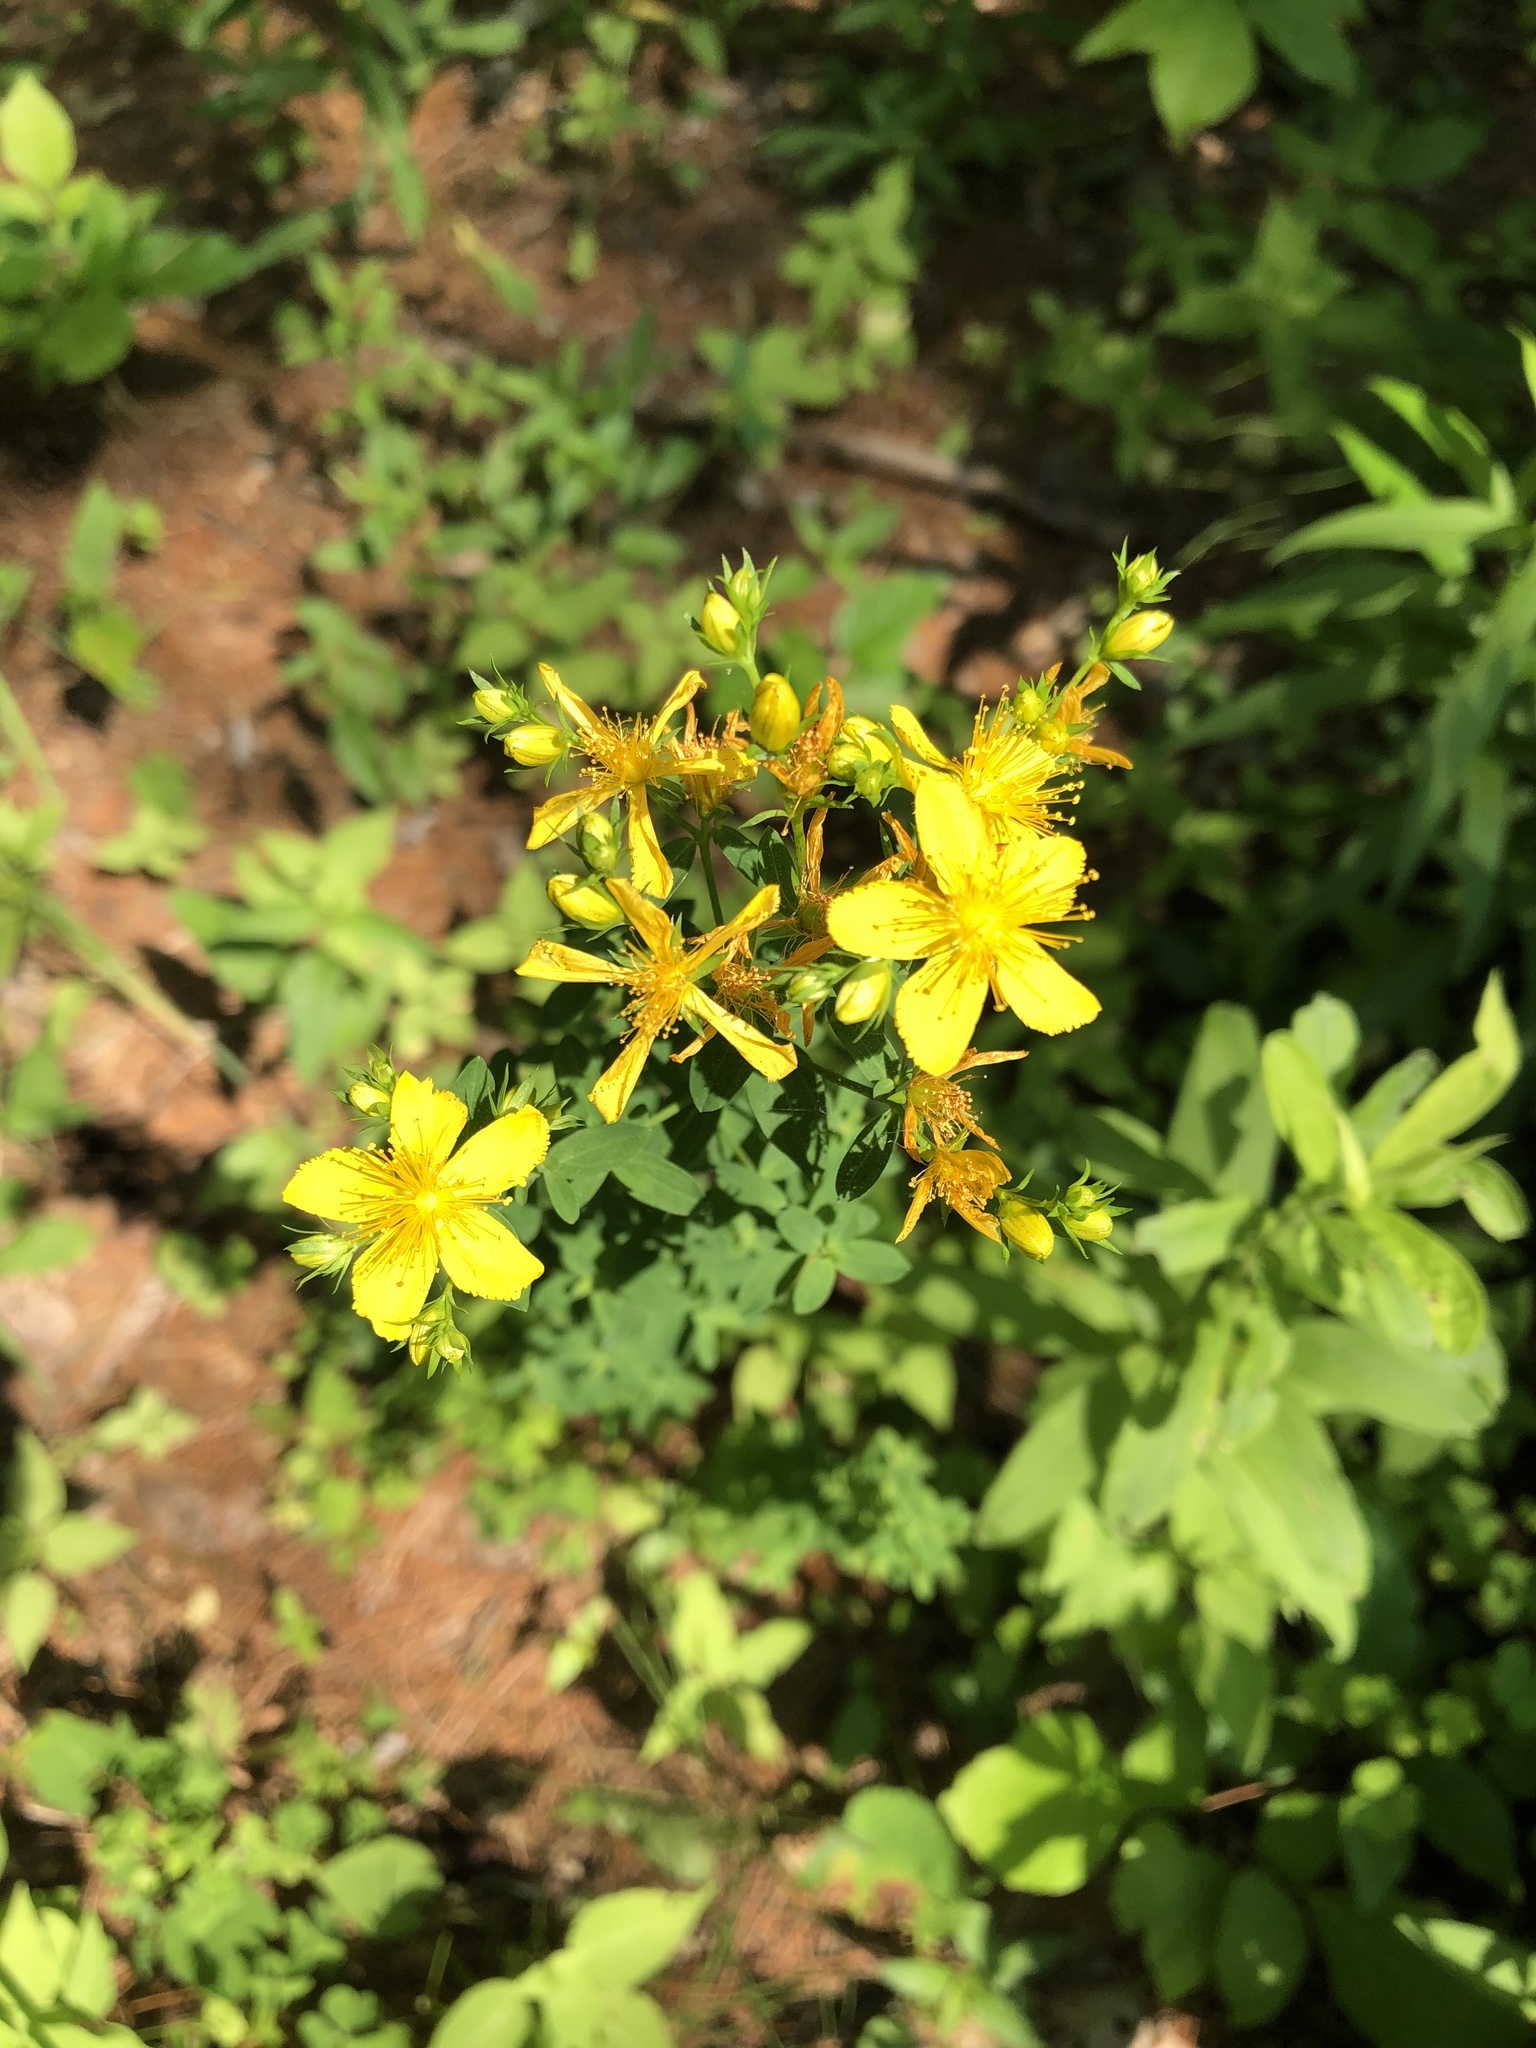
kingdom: Plantae
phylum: Tracheophyta
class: Magnoliopsida
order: Malpighiales
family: Hypericaceae
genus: Hypericum
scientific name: Hypericum perforatum
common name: Common st. johnswort
